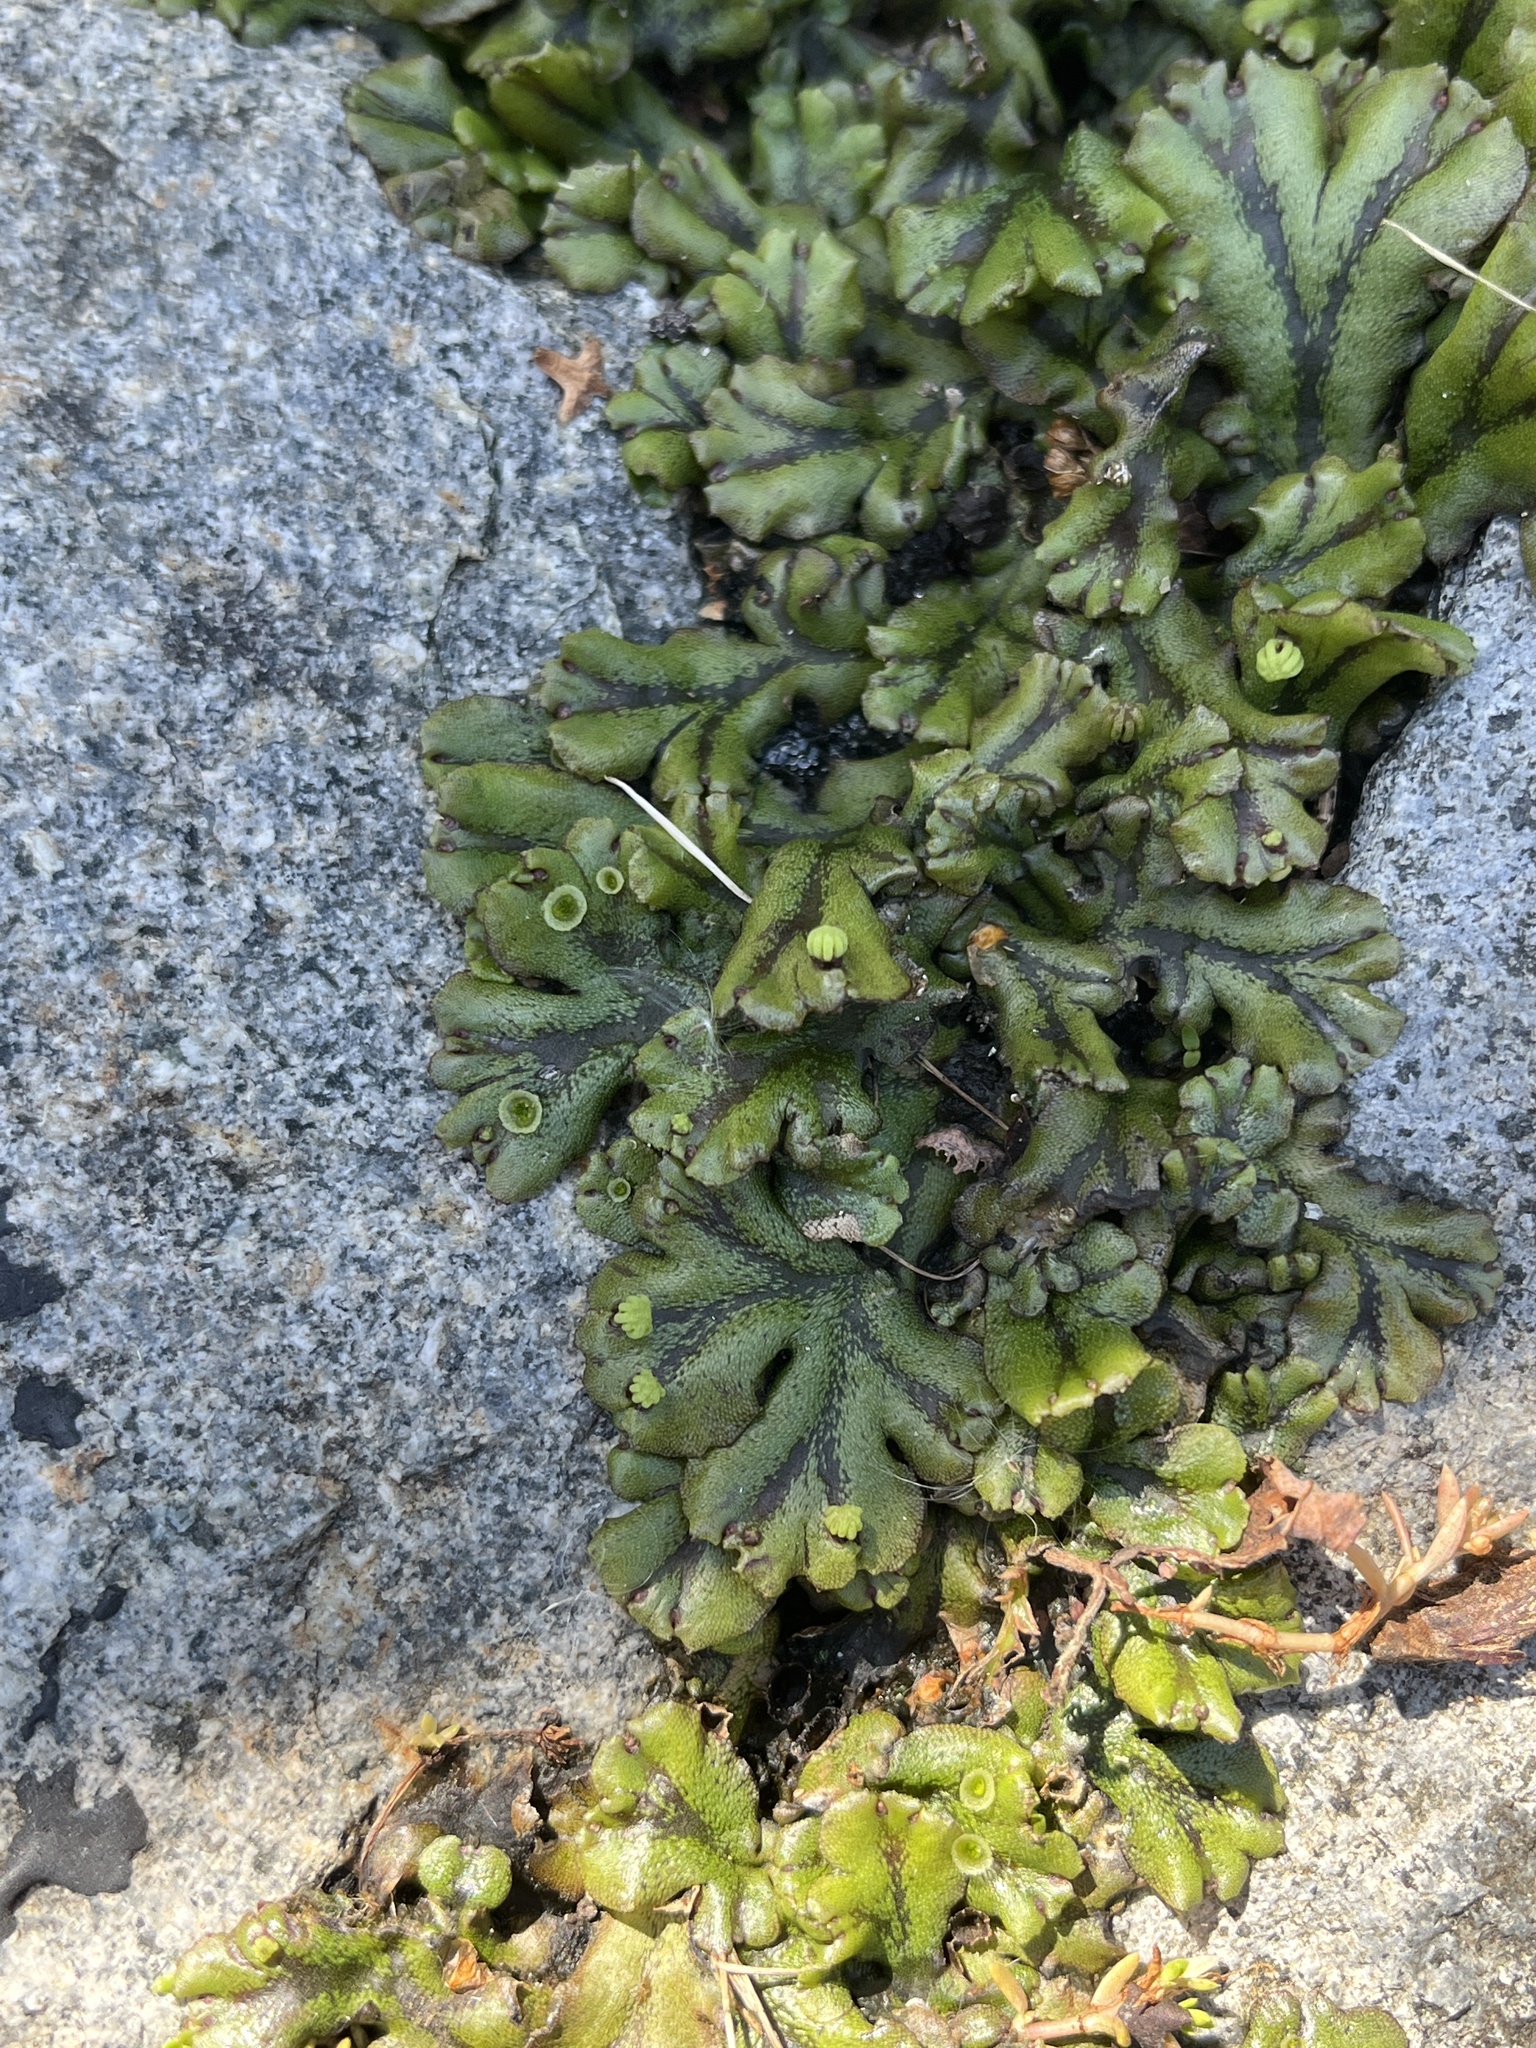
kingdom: Plantae
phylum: Marchantiophyta
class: Marchantiopsida
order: Marchantiales
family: Marchantiaceae
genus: Marchantia
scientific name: Marchantia polymorpha
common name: Common liverwort
